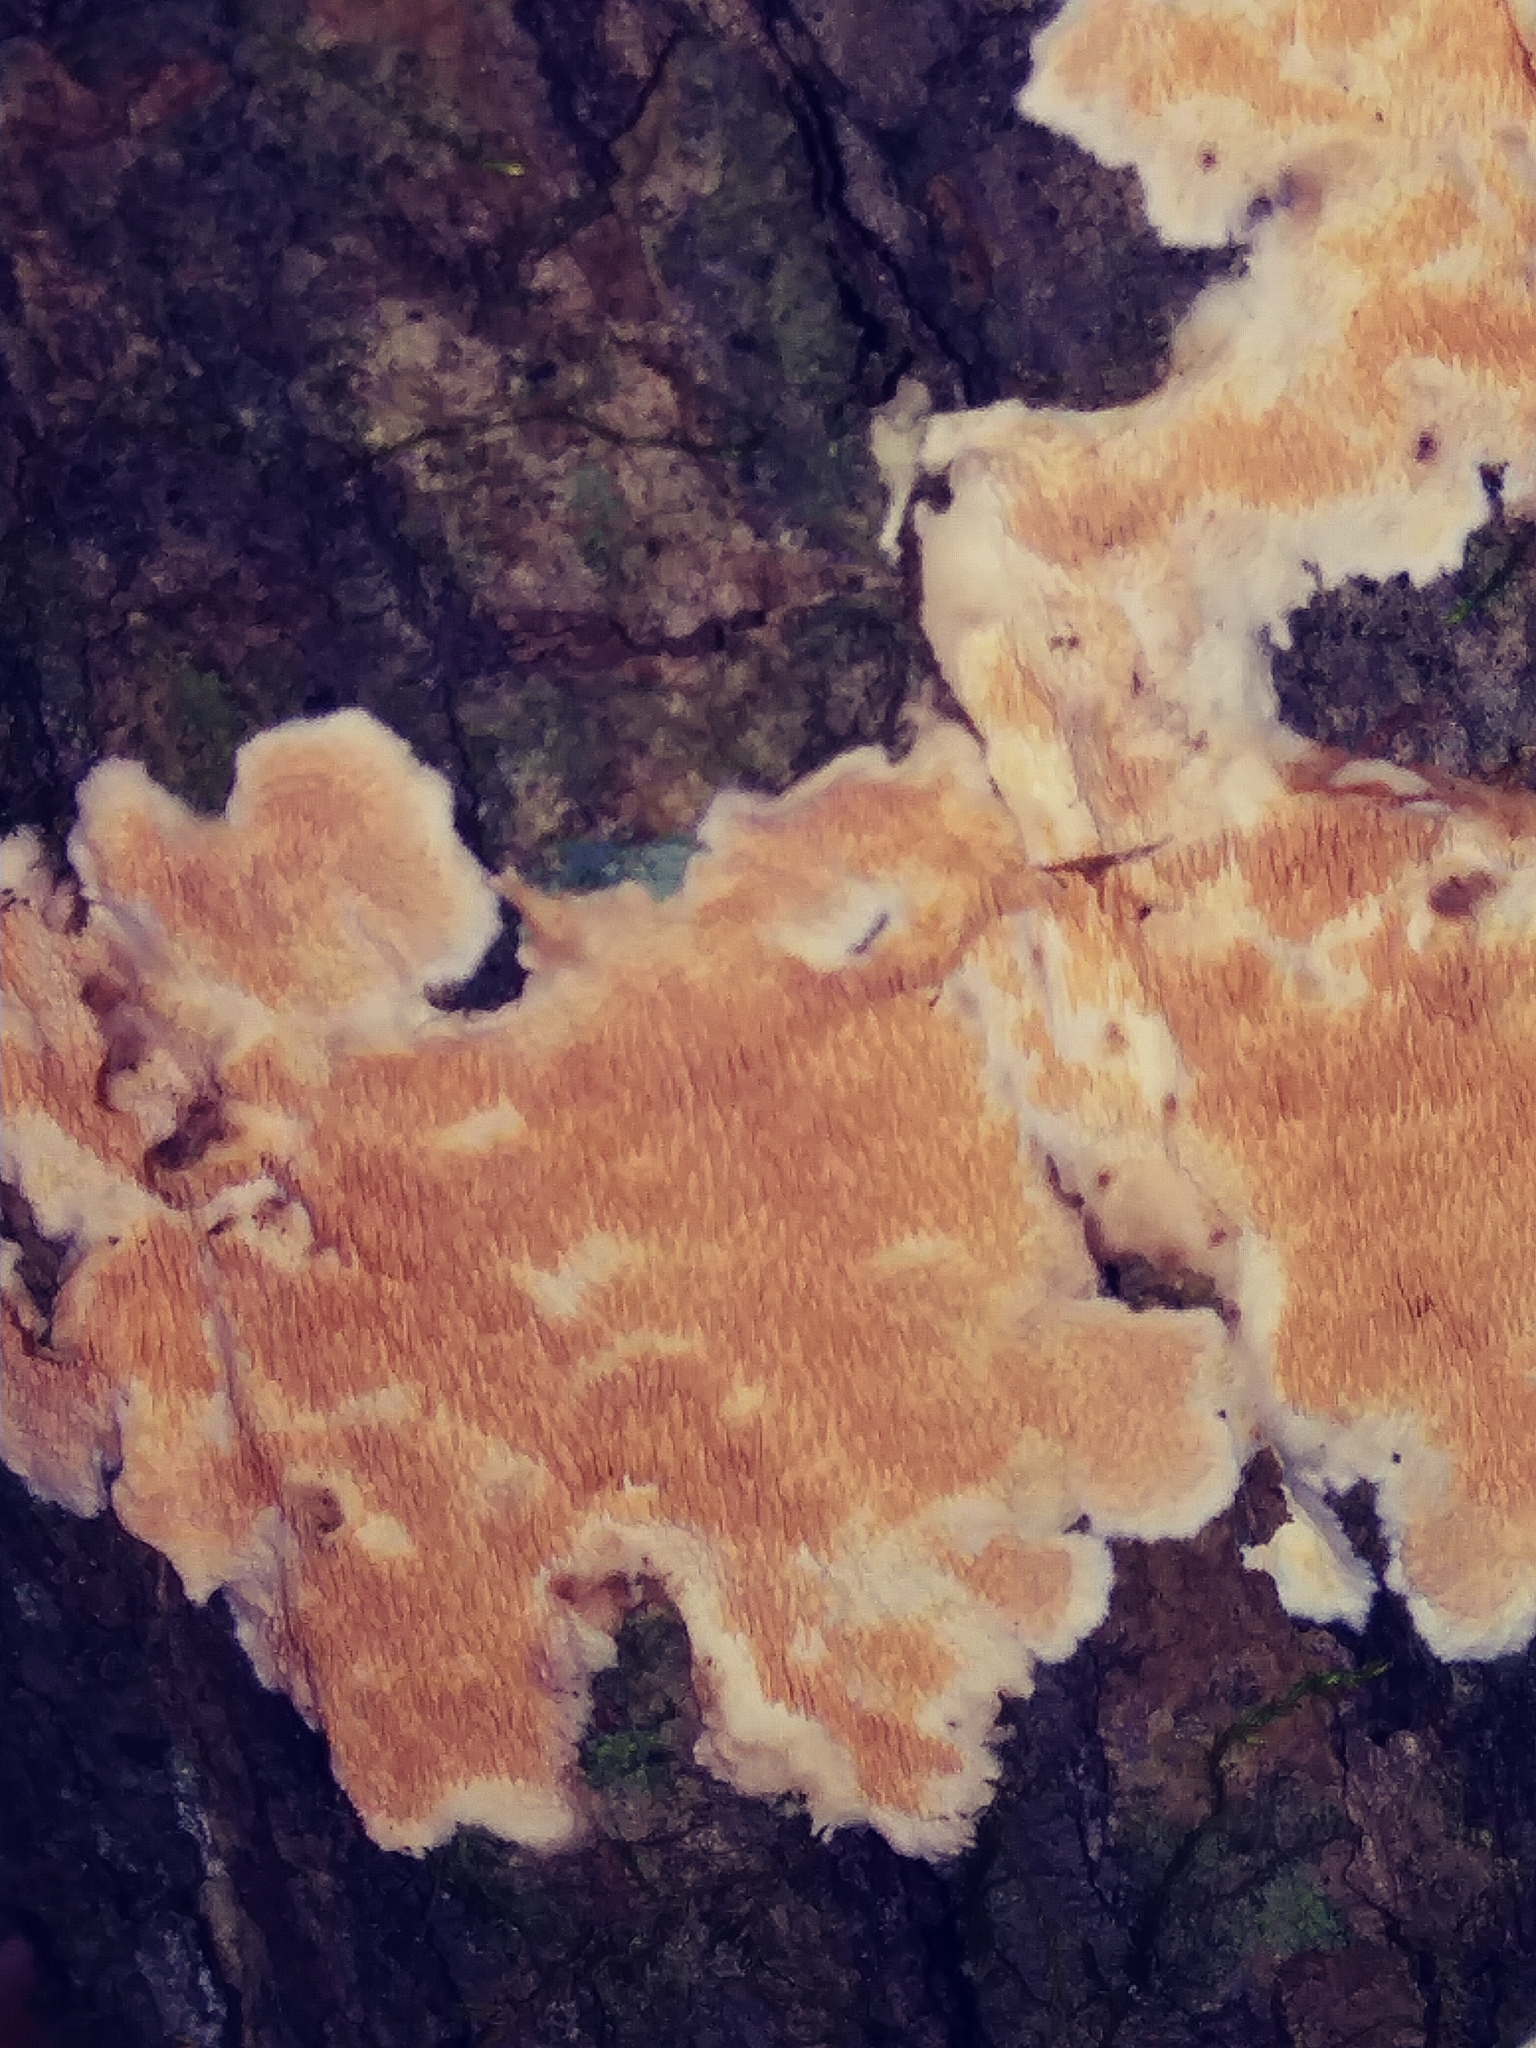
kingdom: Fungi
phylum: Basidiomycota
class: Agaricomycetes
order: Polyporales
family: Steccherinaceae
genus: Steccherinum
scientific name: Steccherinum ochraceum
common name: Ochre spreading tooth
